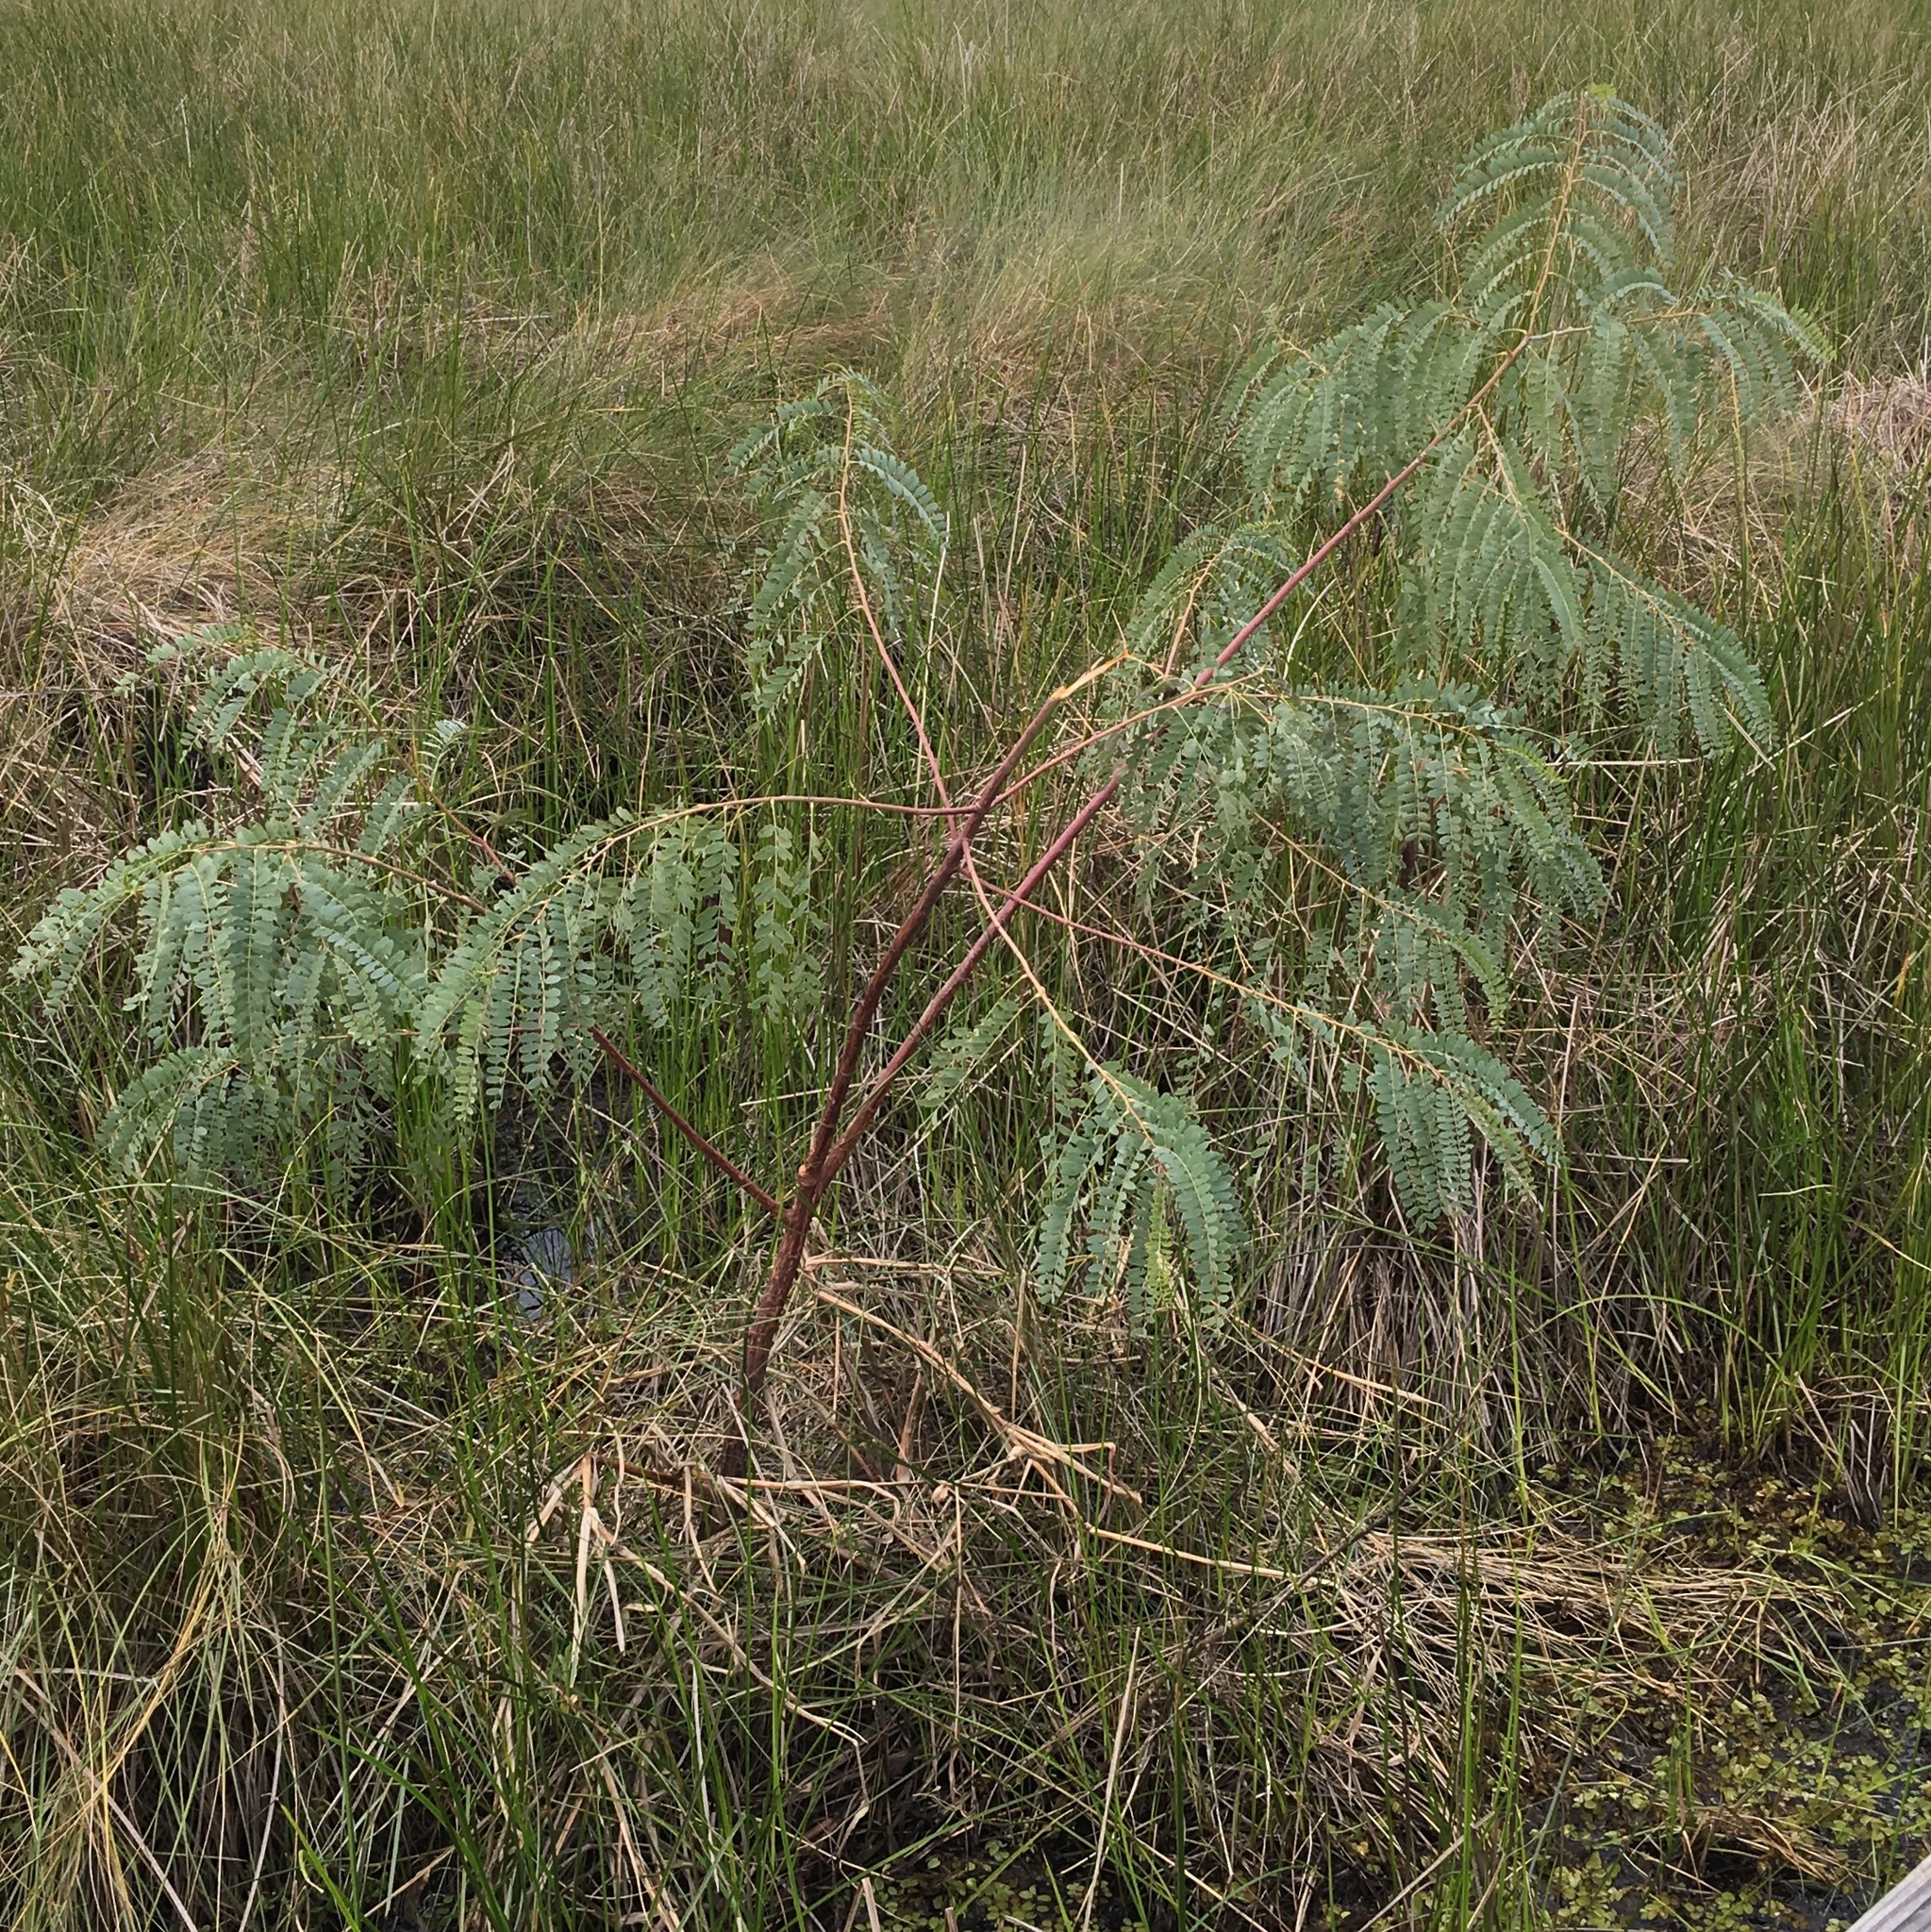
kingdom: Plantae
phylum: Tracheophyta
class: Magnoliopsida
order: Fabales
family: Fabaceae
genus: Sesbania
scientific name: Sesbania punicea
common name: Rattlebox
